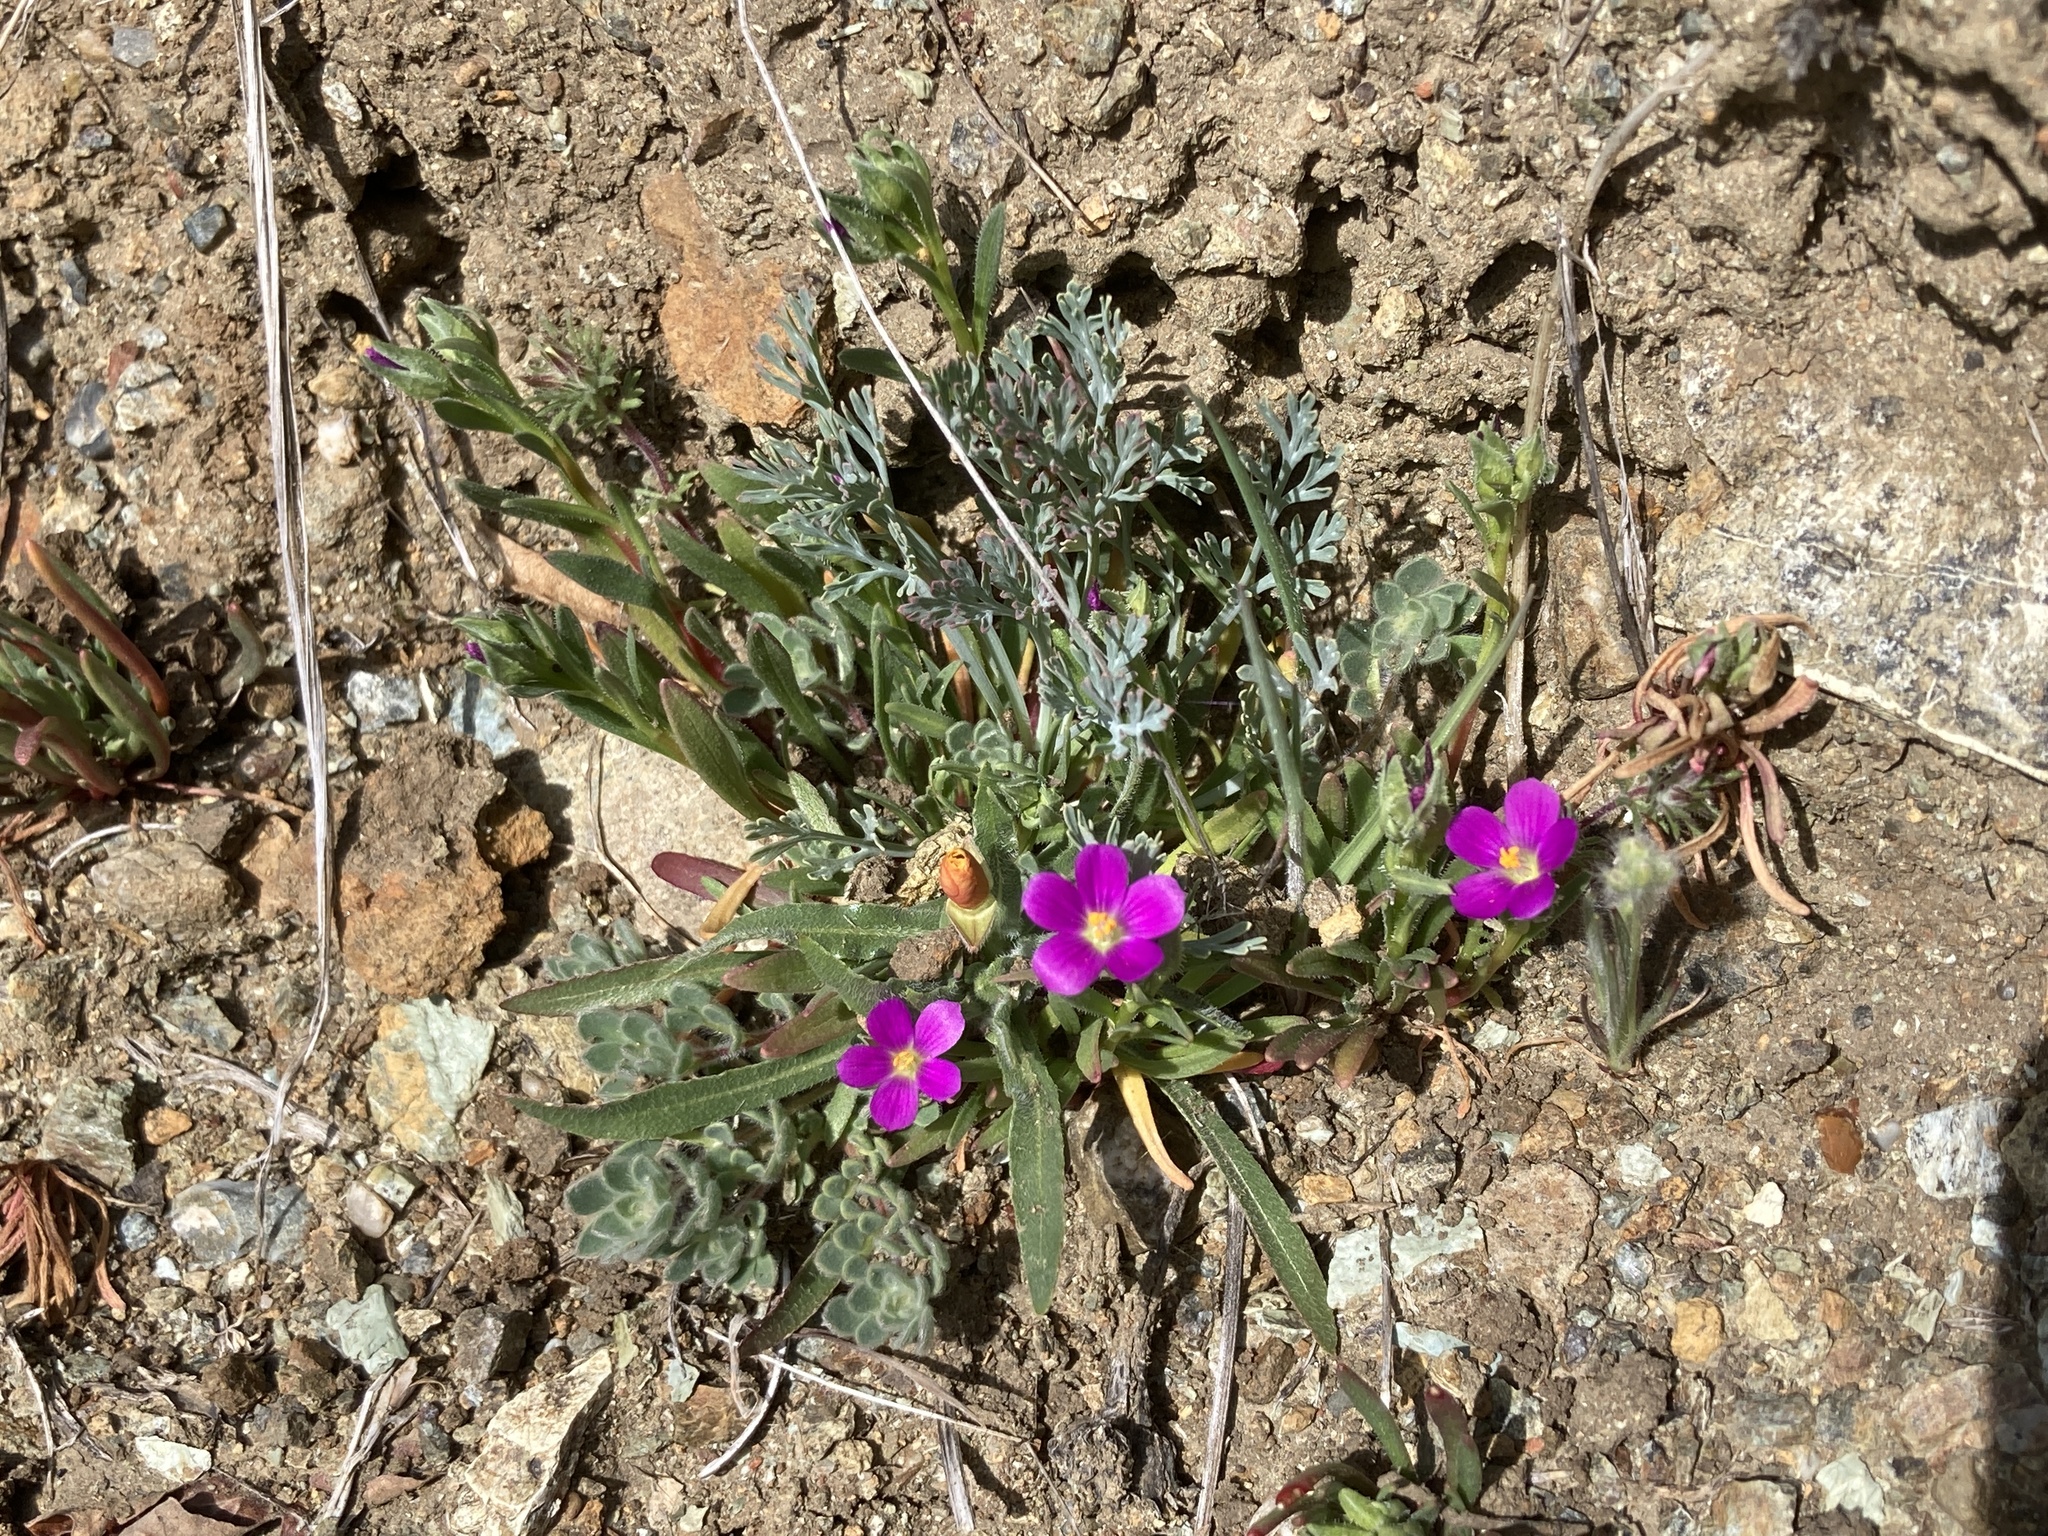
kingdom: Plantae
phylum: Tracheophyta
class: Magnoliopsida
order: Caryophyllales
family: Montiaceae
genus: Calandrinia
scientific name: Calandrinia menziesii
